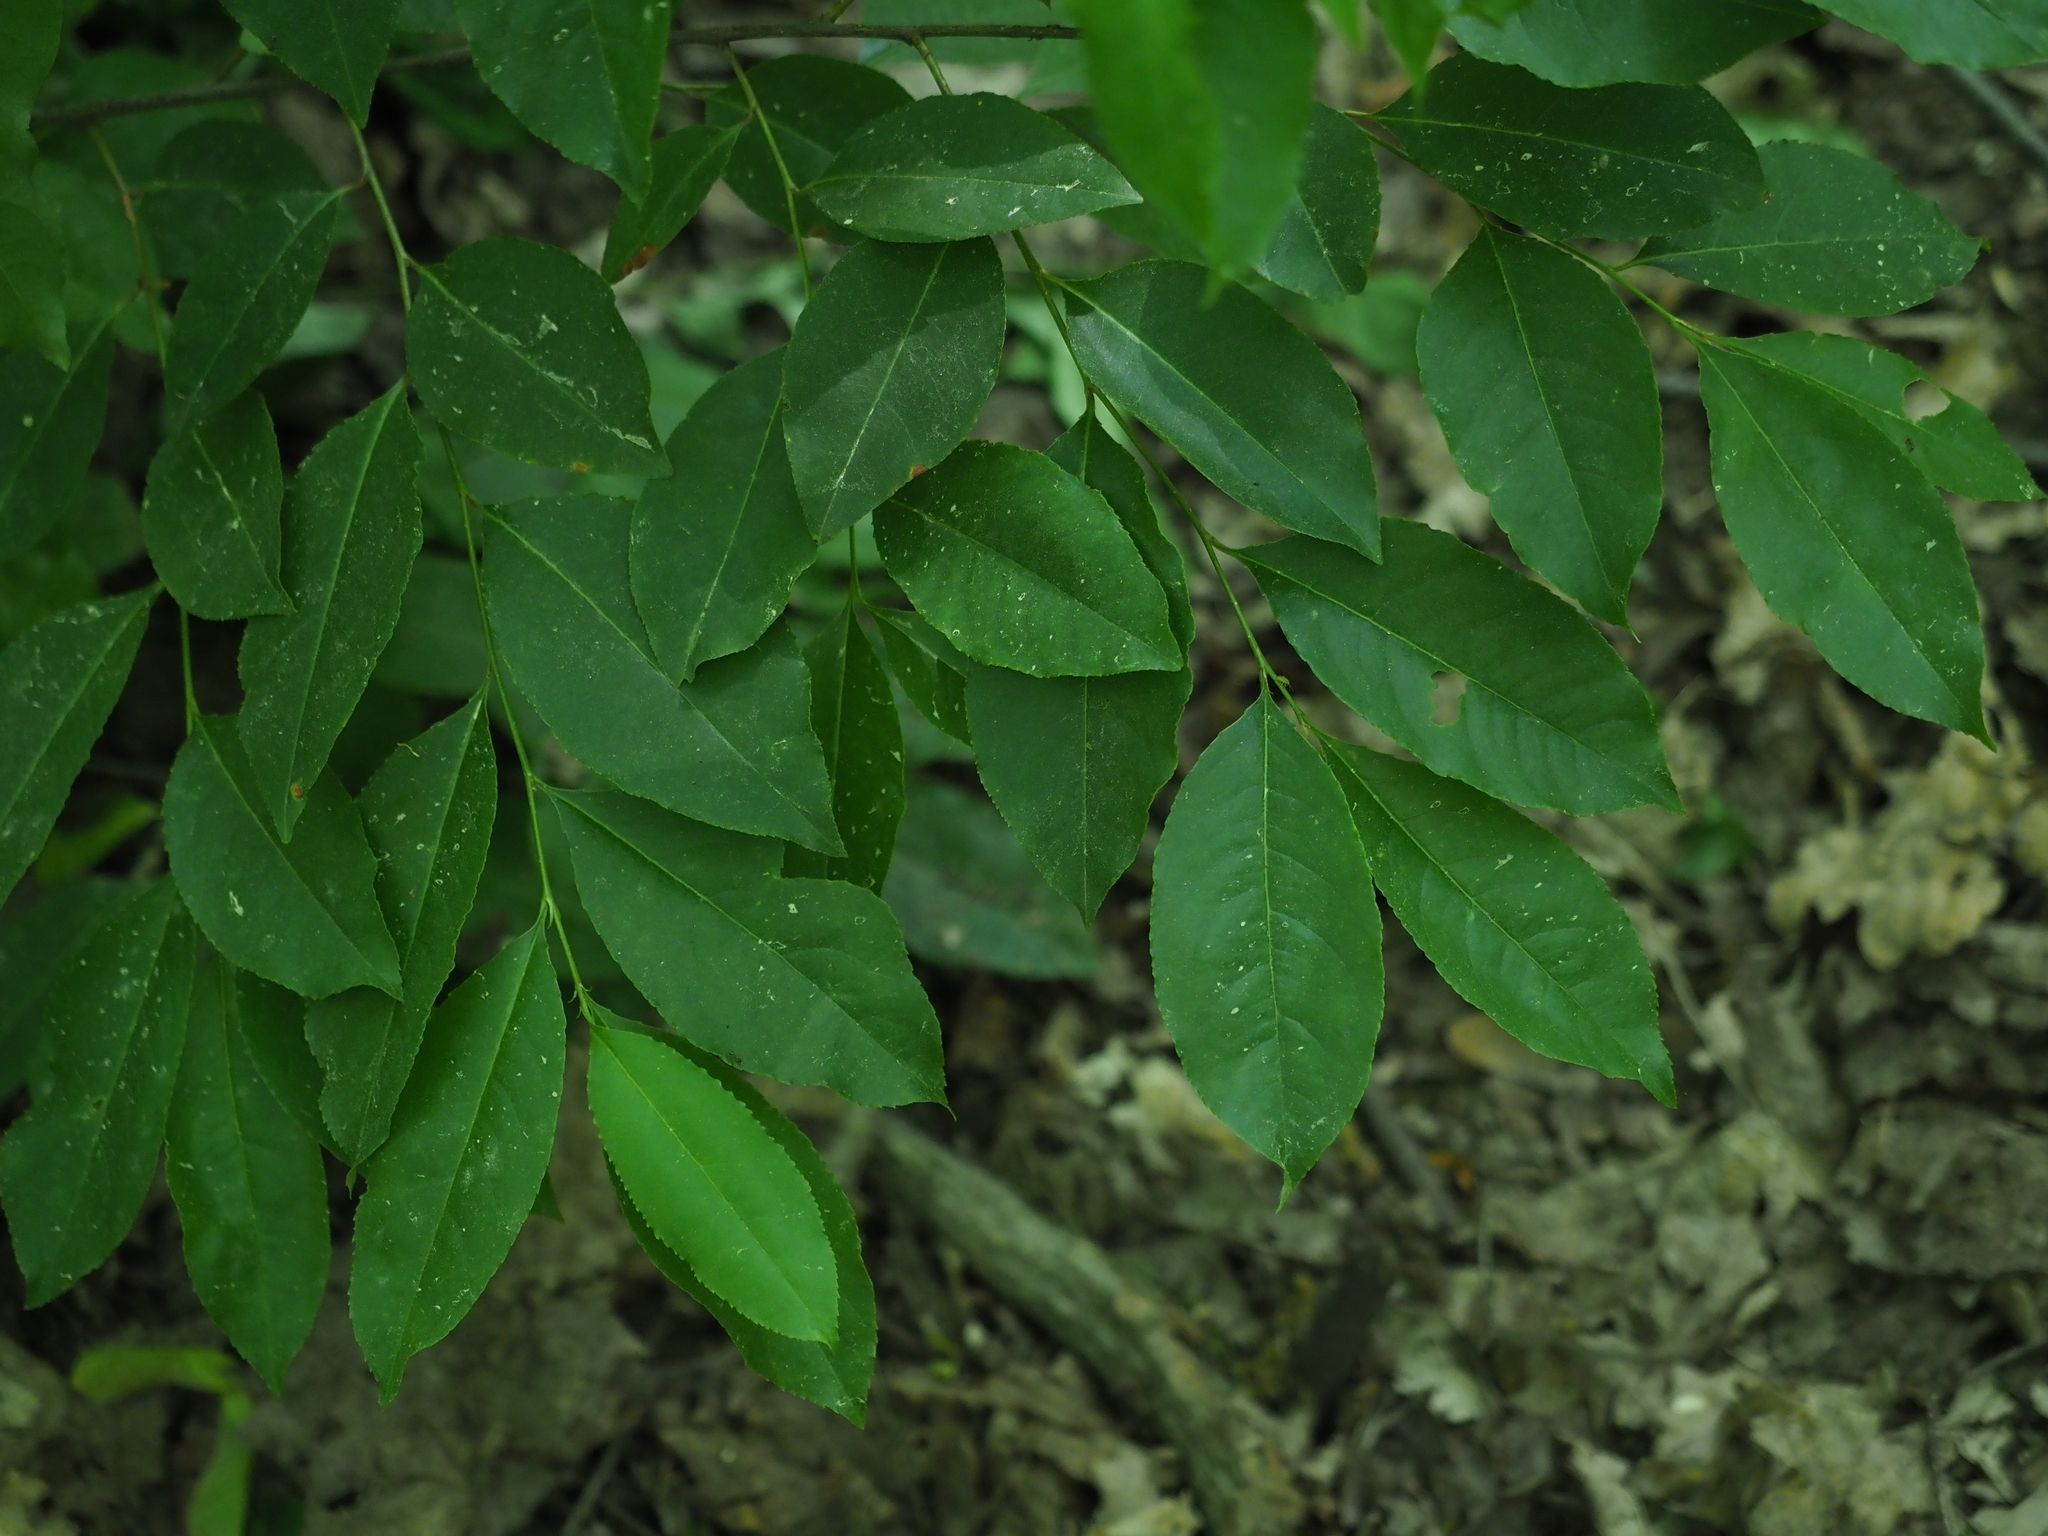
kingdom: Plantae
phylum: Tracheophyta
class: Magnoliopsida
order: Rosales
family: Rosaceae
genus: Prunus
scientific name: Prunus serotina
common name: Black cherry
